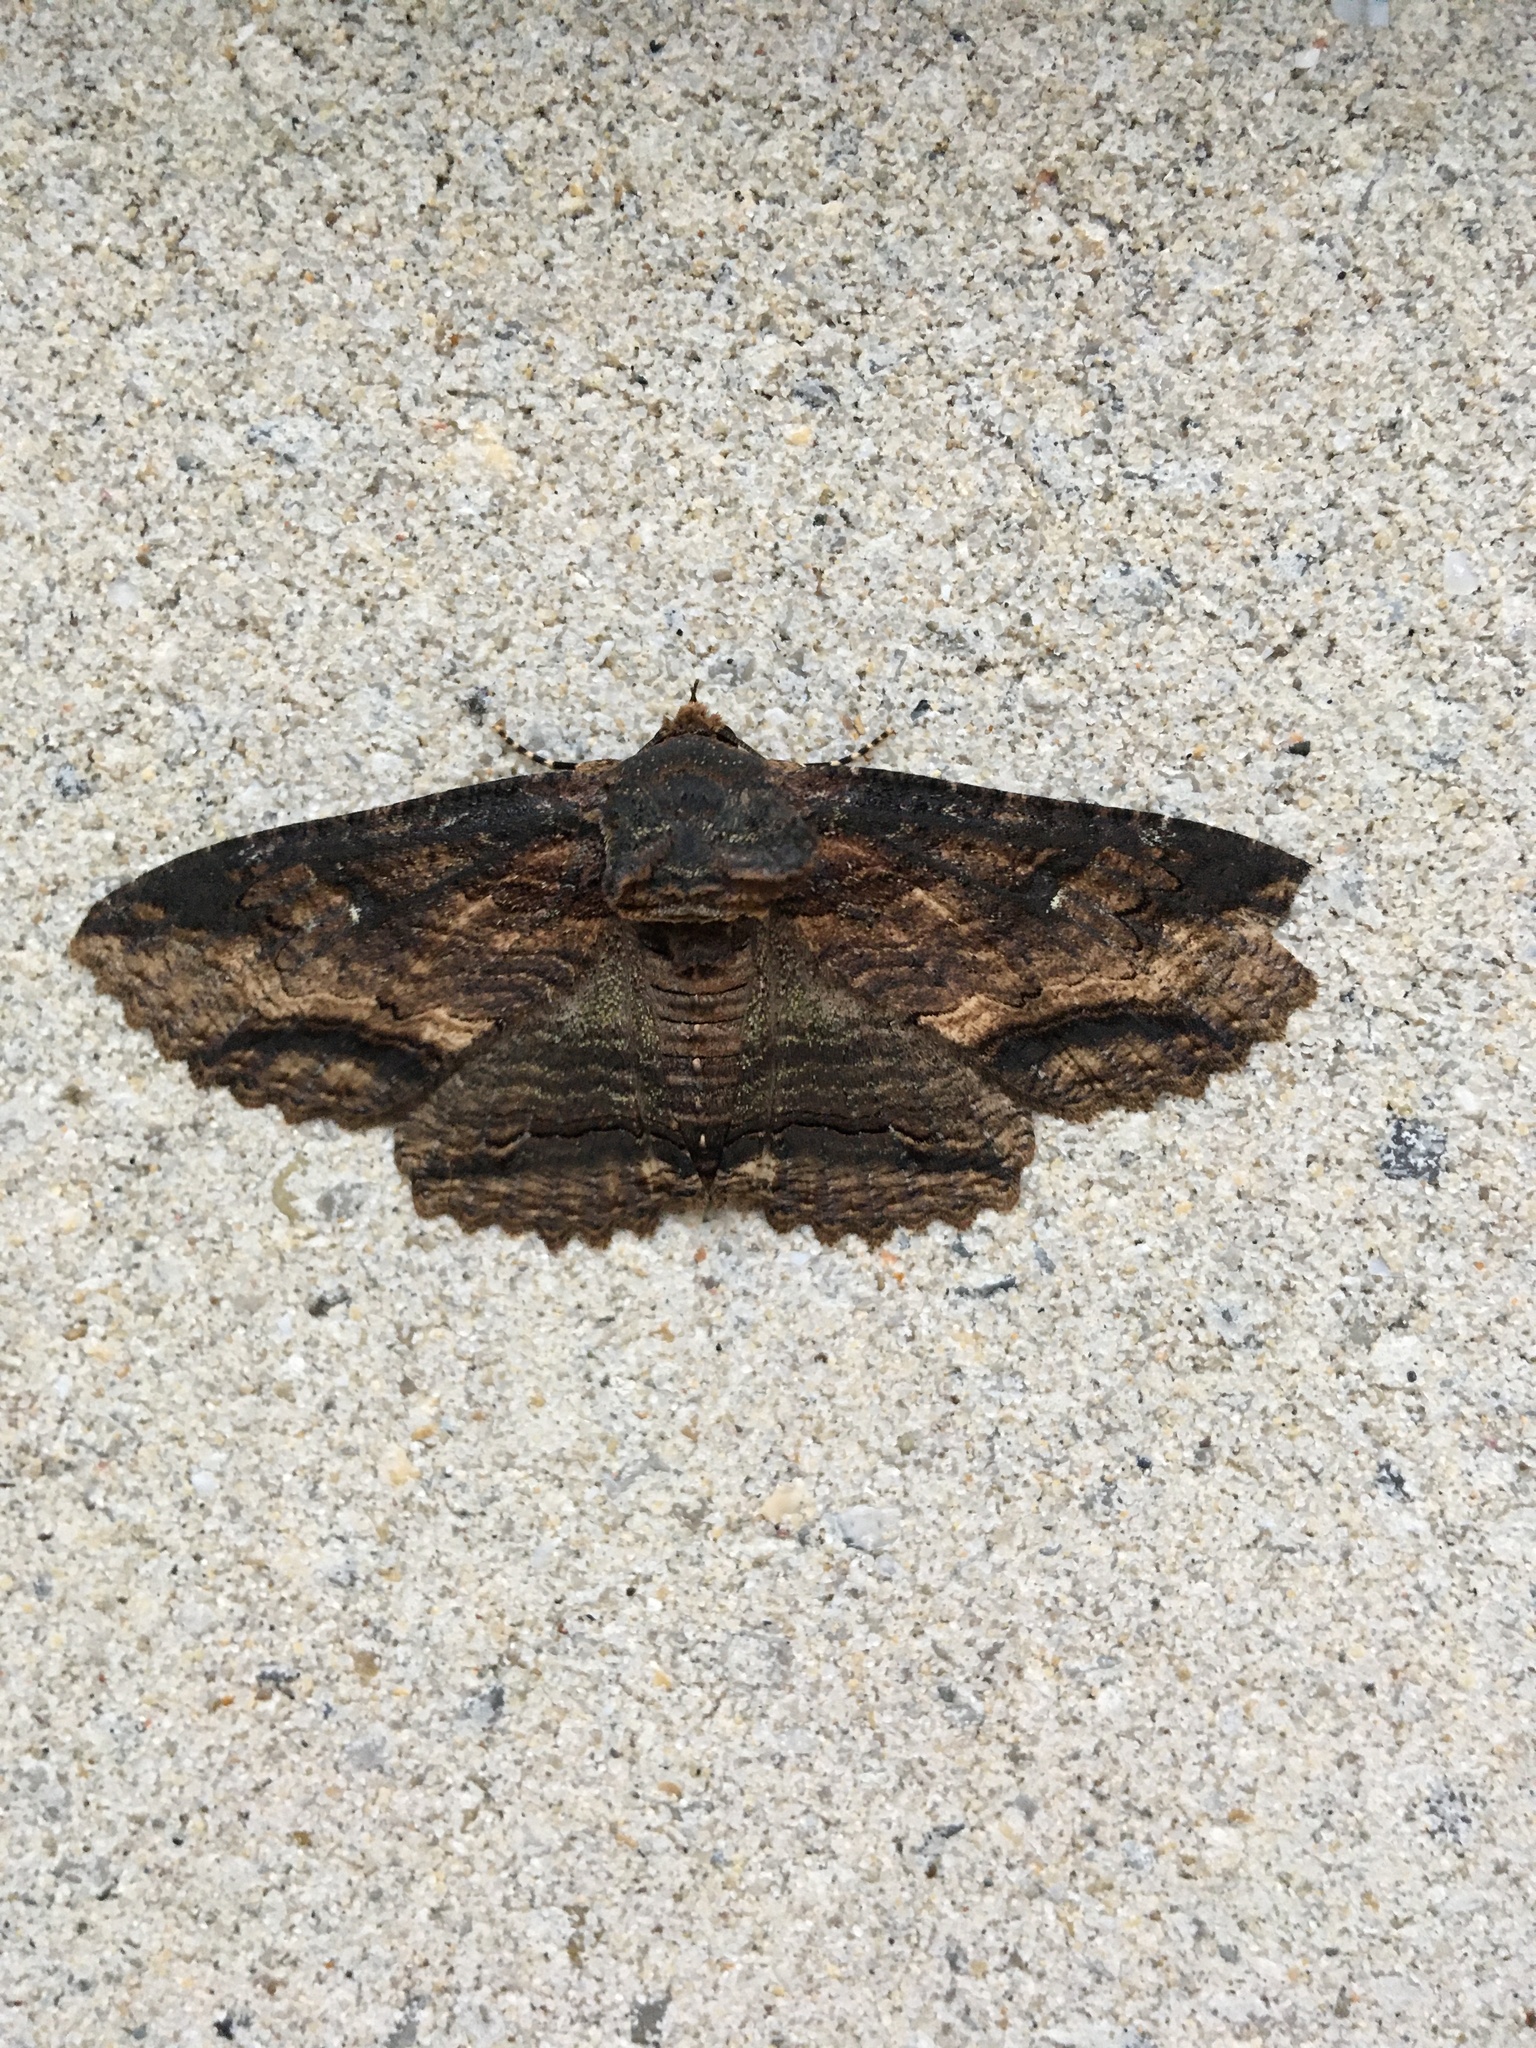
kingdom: Animalia
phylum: Arthropoda
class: Insecta
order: Lepidoptera
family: Erebidae
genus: Zale
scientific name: Zale lunata
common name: Lunate zale moth
